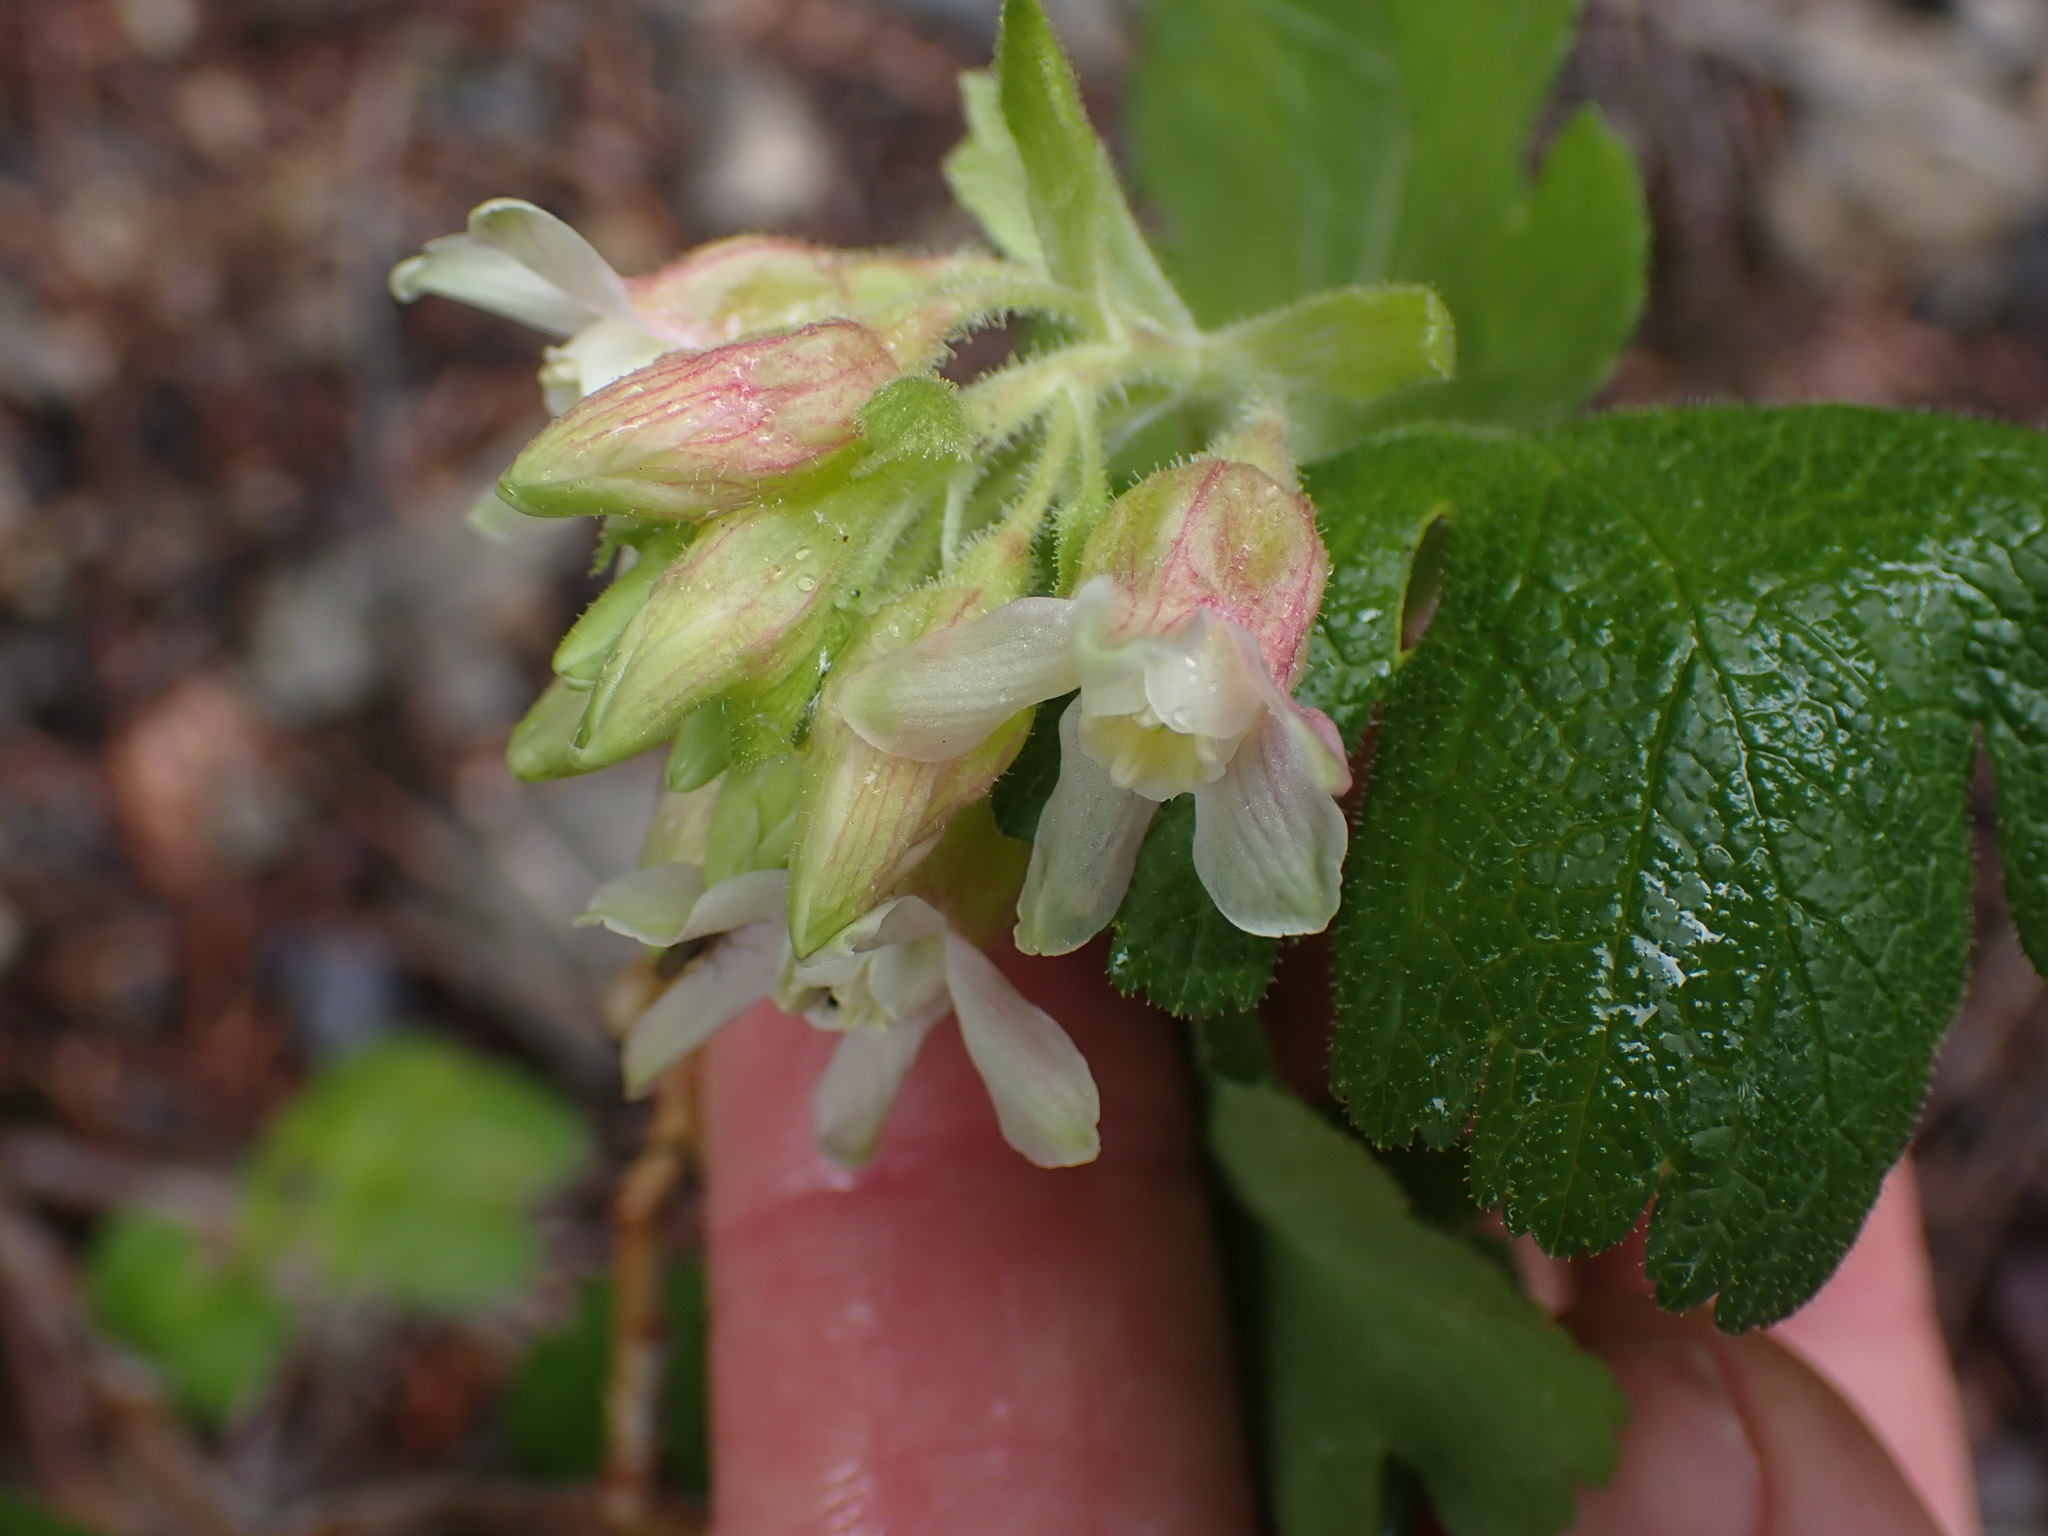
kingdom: Plantae
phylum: Tracheophyta
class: Magnoliopsida
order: Saxifragales
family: Grossulariaceae
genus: Ribes
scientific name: Ribes viscosissimum
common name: Sticky currant
